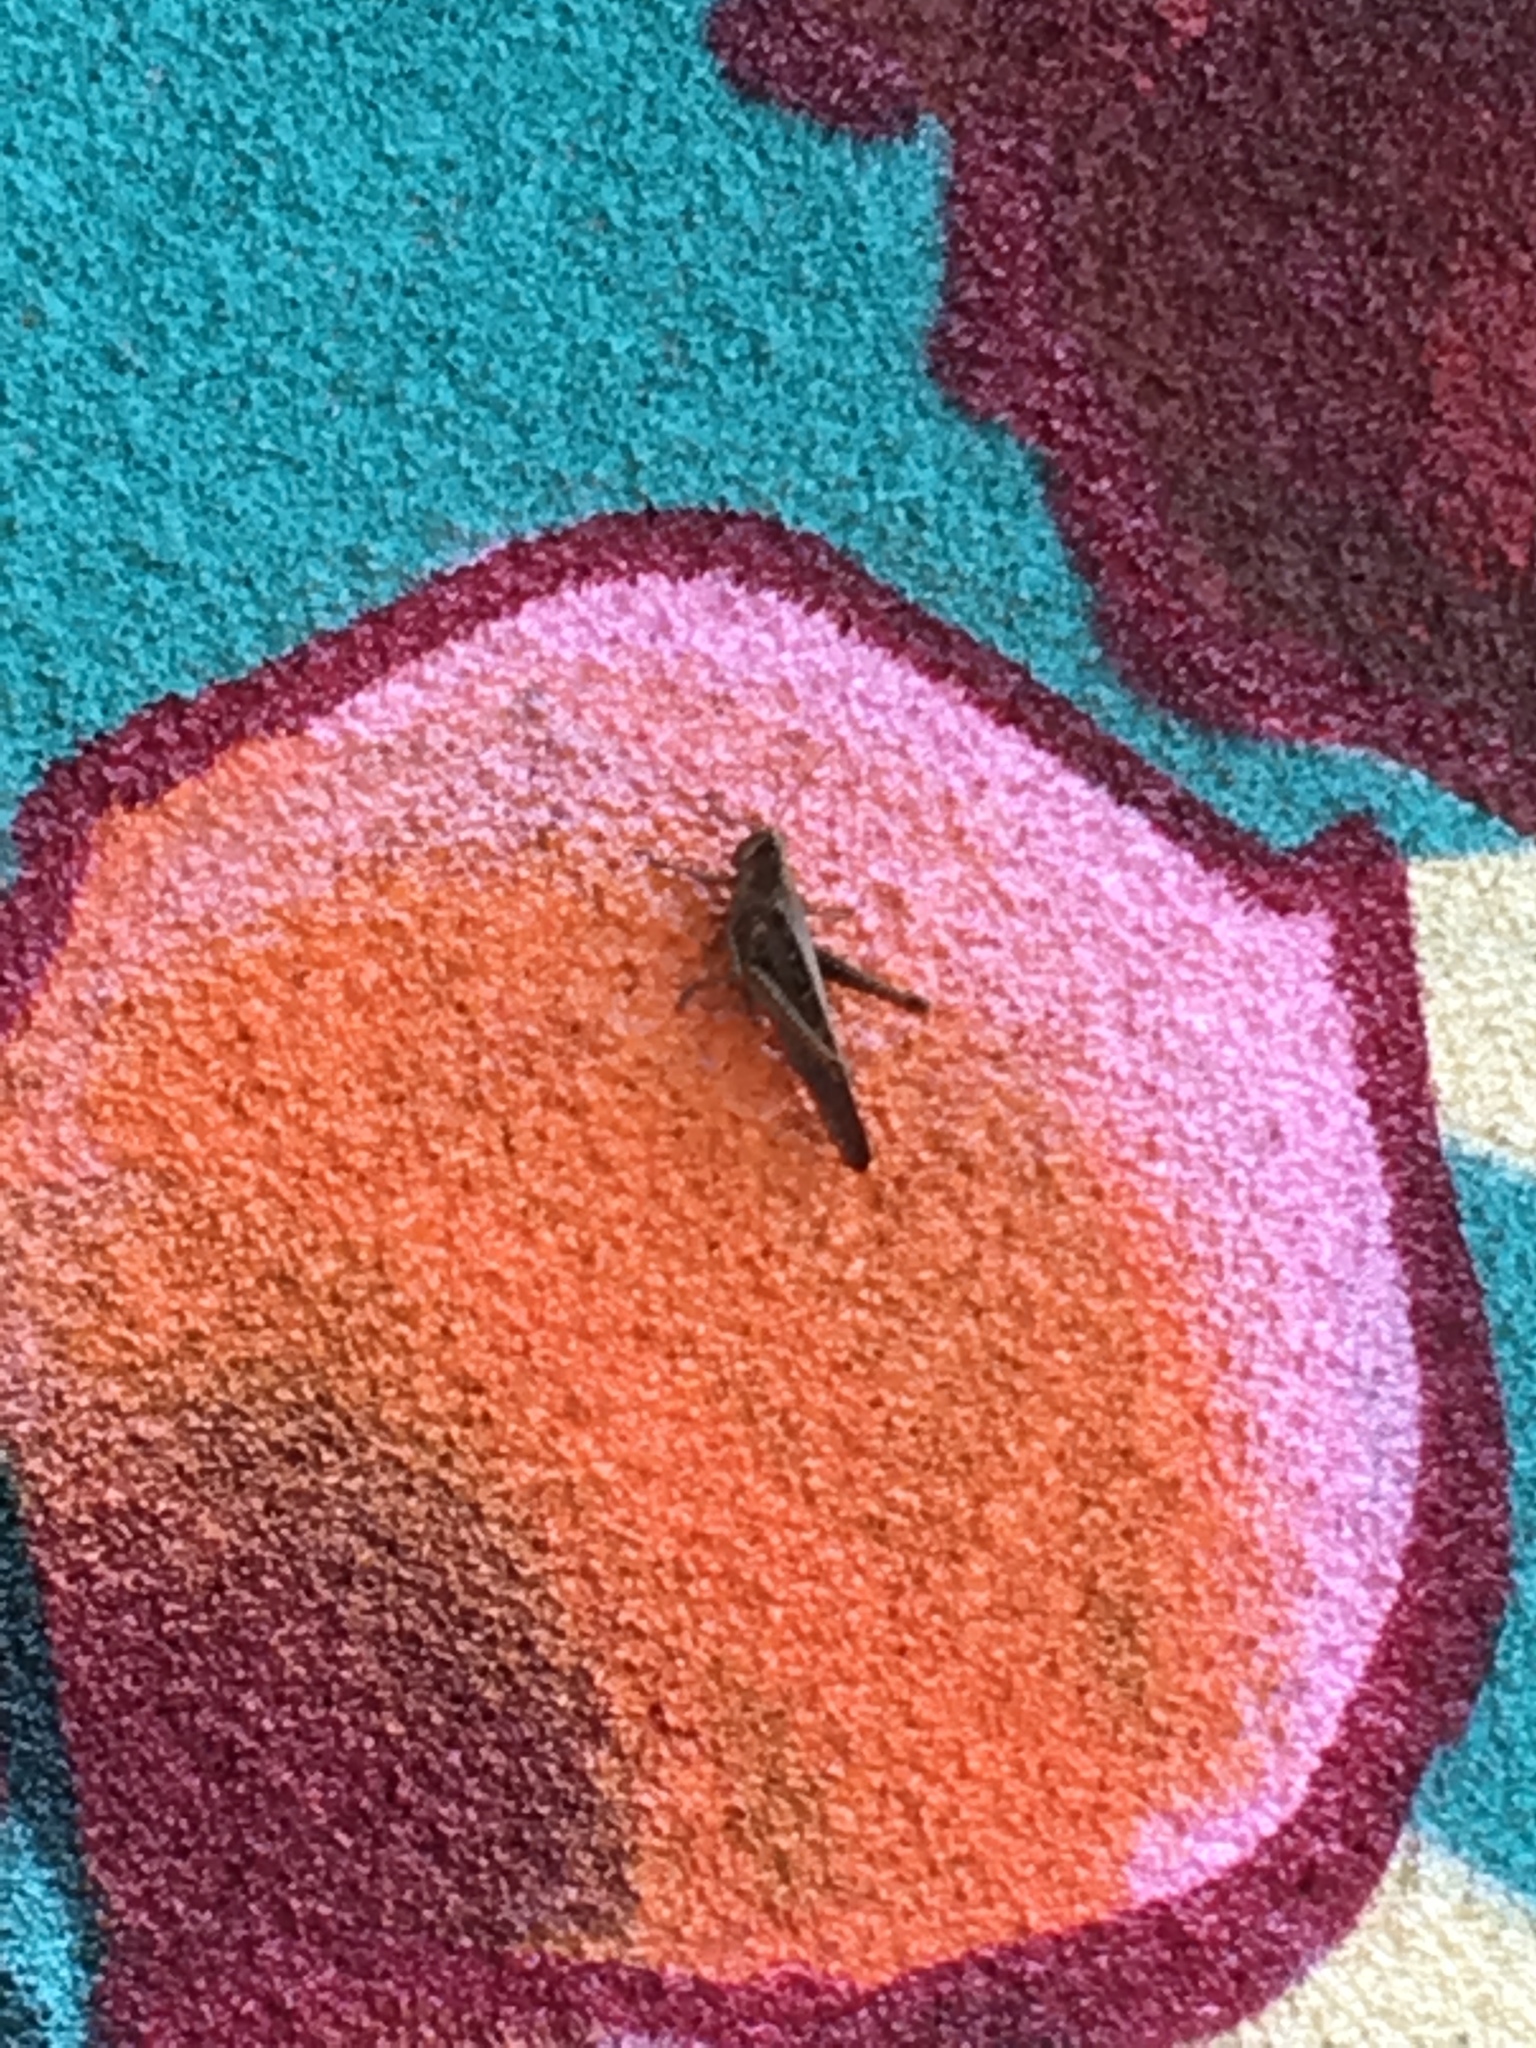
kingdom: Animalia
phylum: Arthropoda
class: Insecta
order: Orthoptera
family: Acrididae
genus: Schistocerca
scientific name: Schistocerca nitens
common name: Vagrant grasshopper
